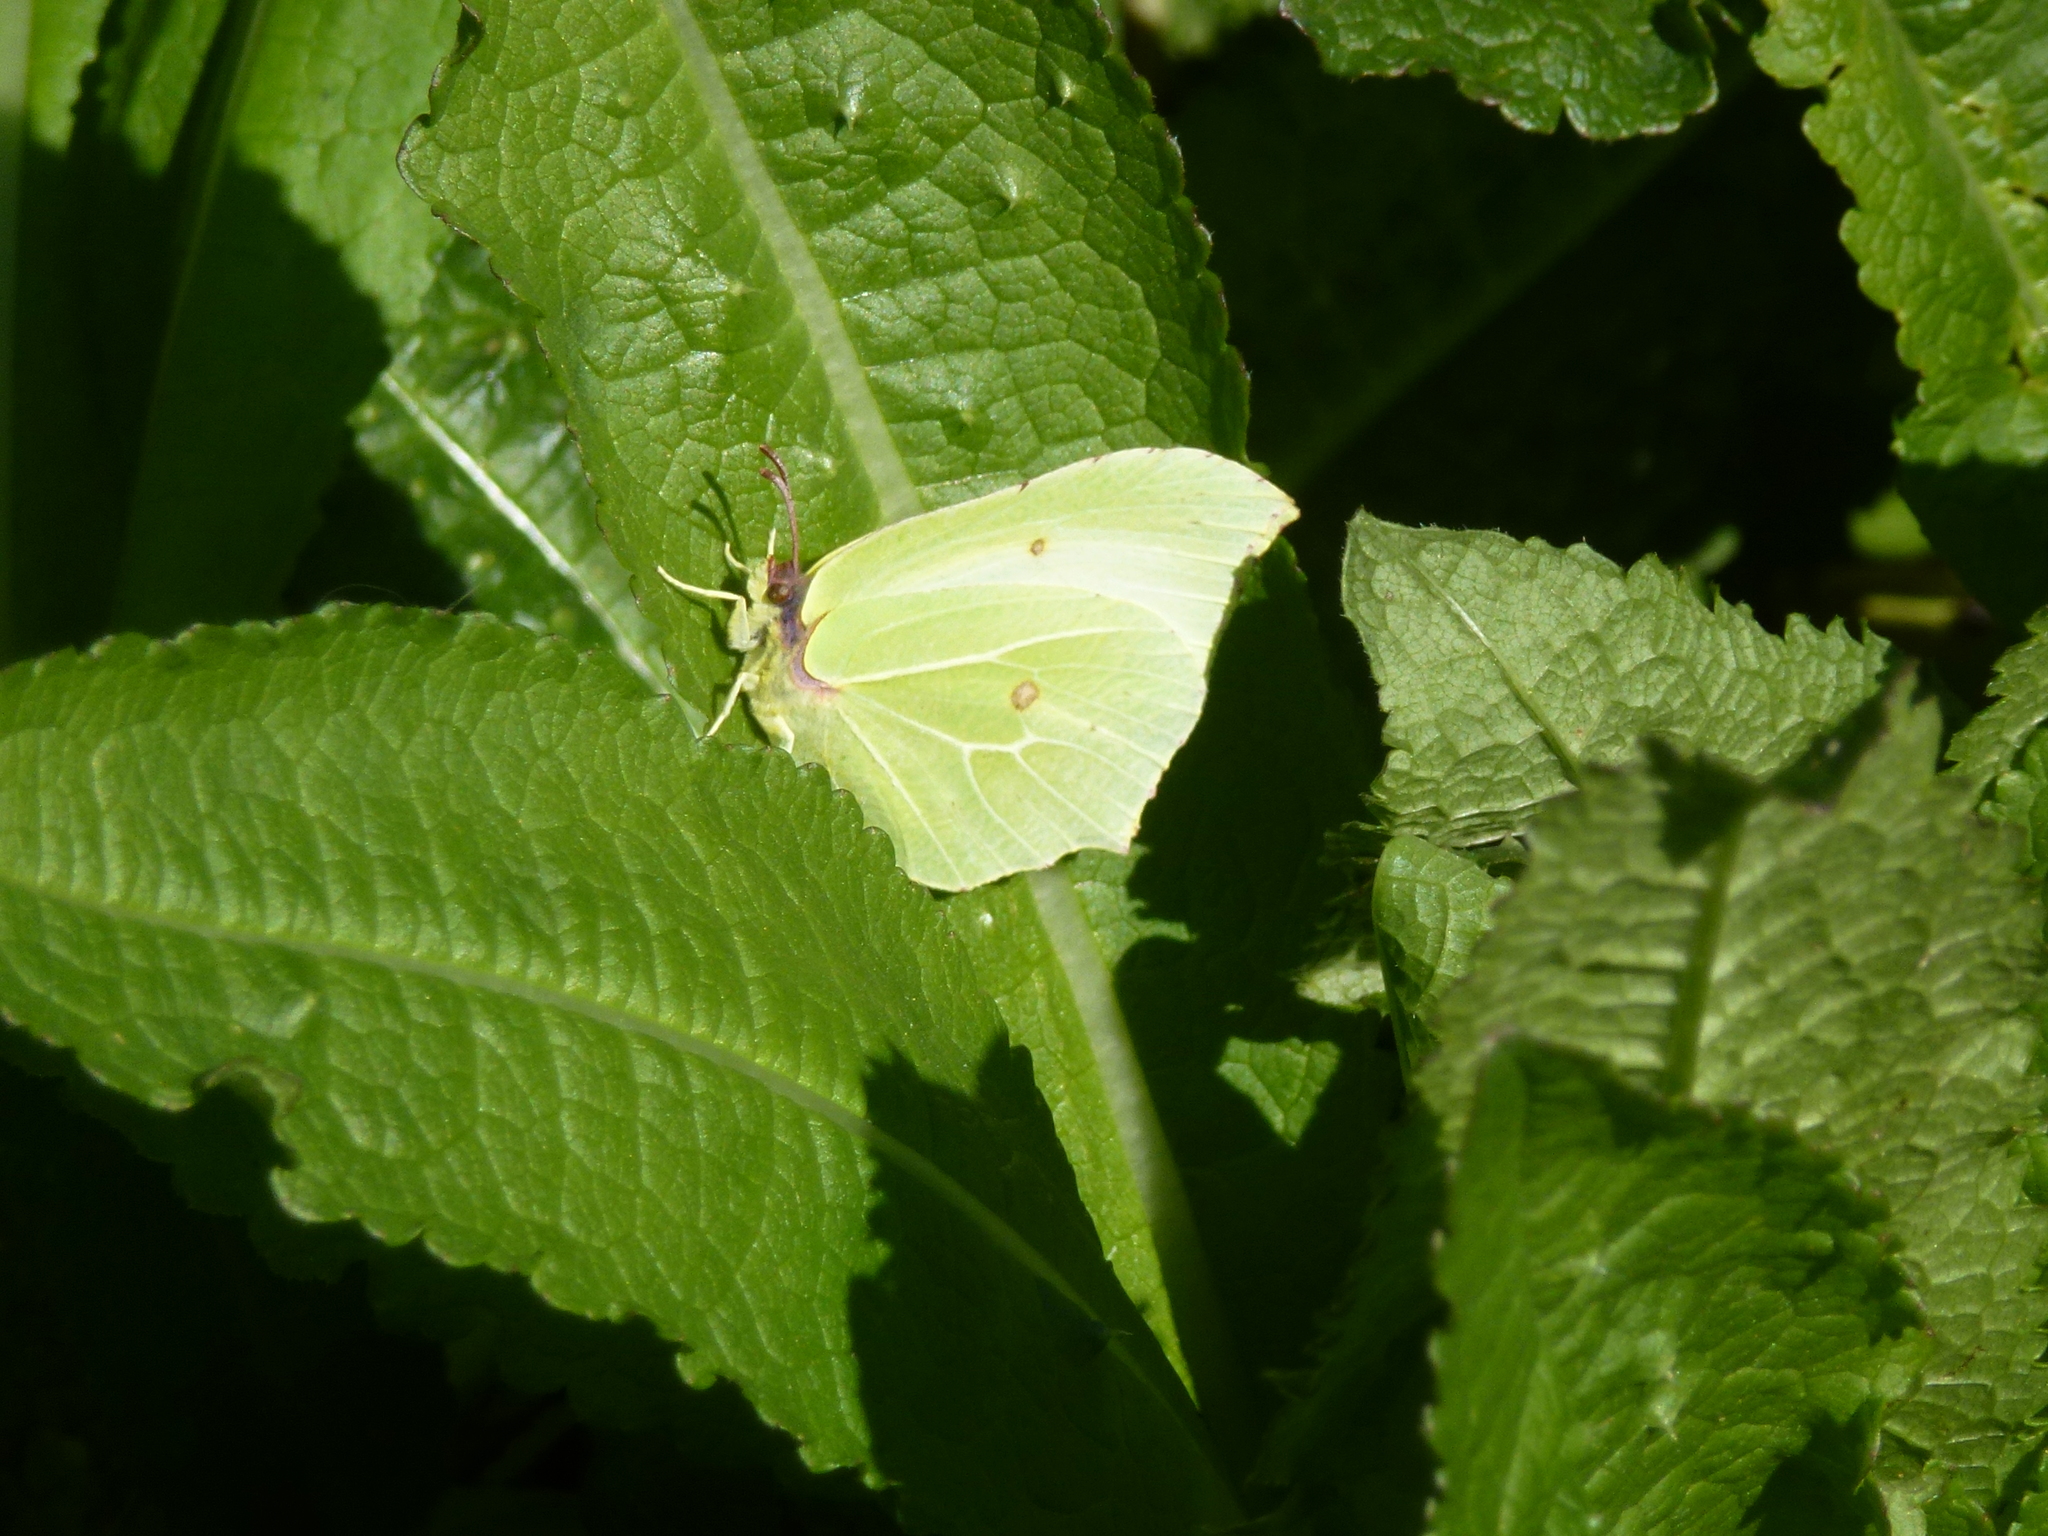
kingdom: Animalia
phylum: Arthropoda
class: Insecta
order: Lepidoptera
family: Pieridae
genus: Gonepteryx
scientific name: Gonepteryx rhamni
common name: Brimstone
